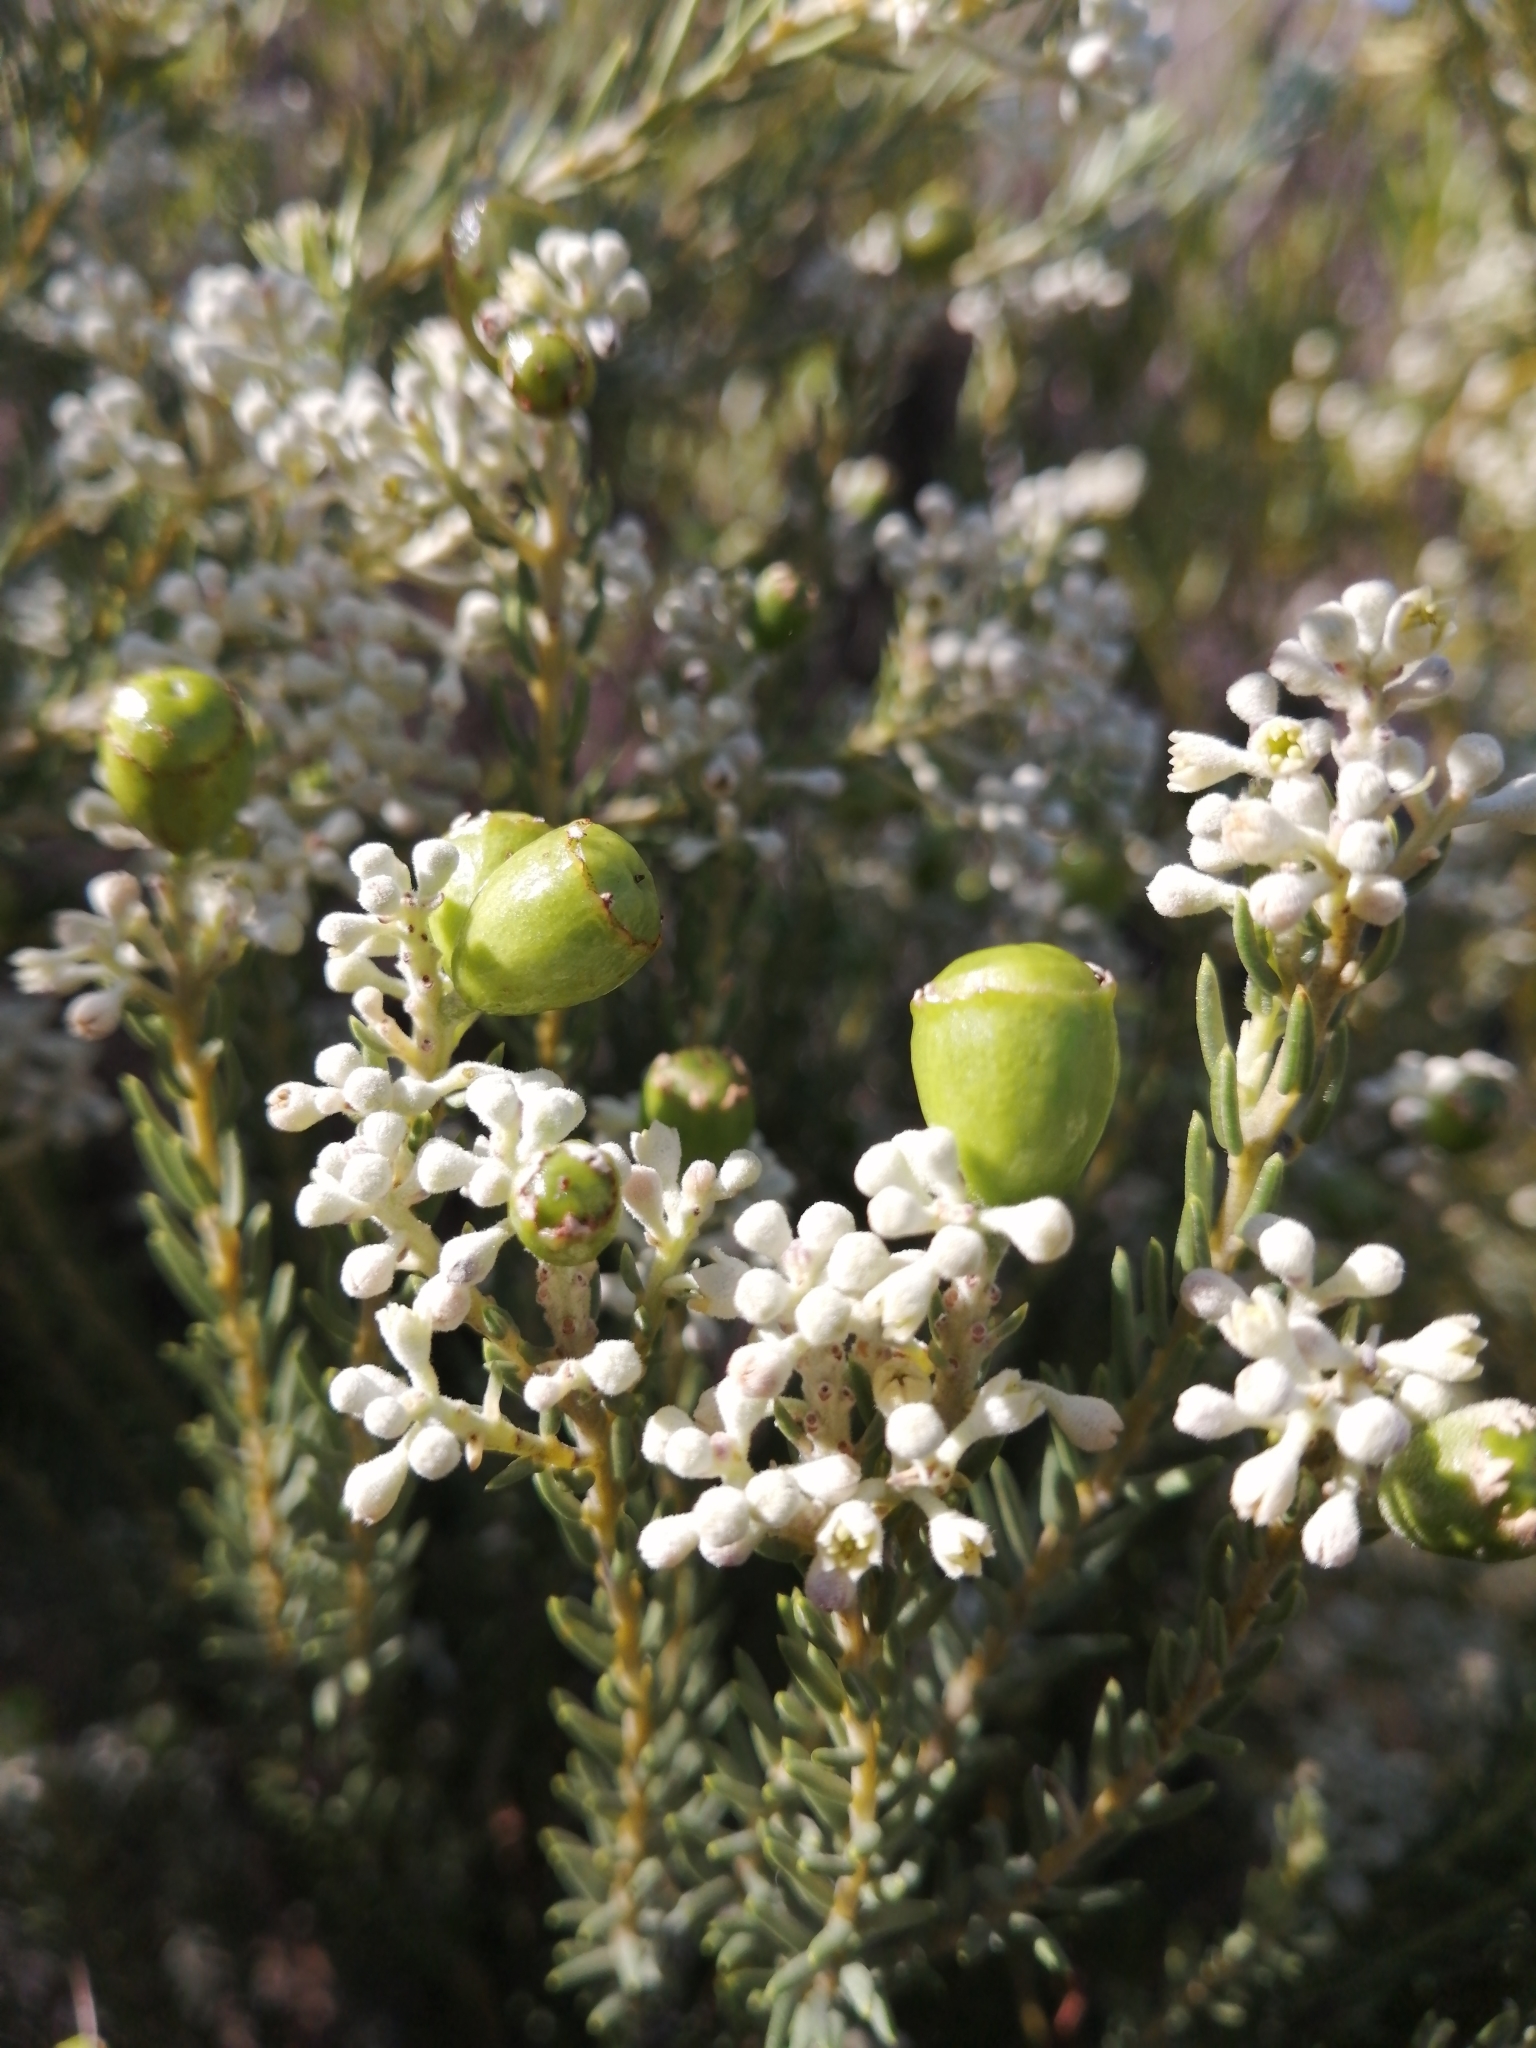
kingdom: Plantae
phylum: Tracheophyta
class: Magnoliopsida
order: Rosales
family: Rhamnaceae
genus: Phylica
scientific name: Phylica rigidifolia
